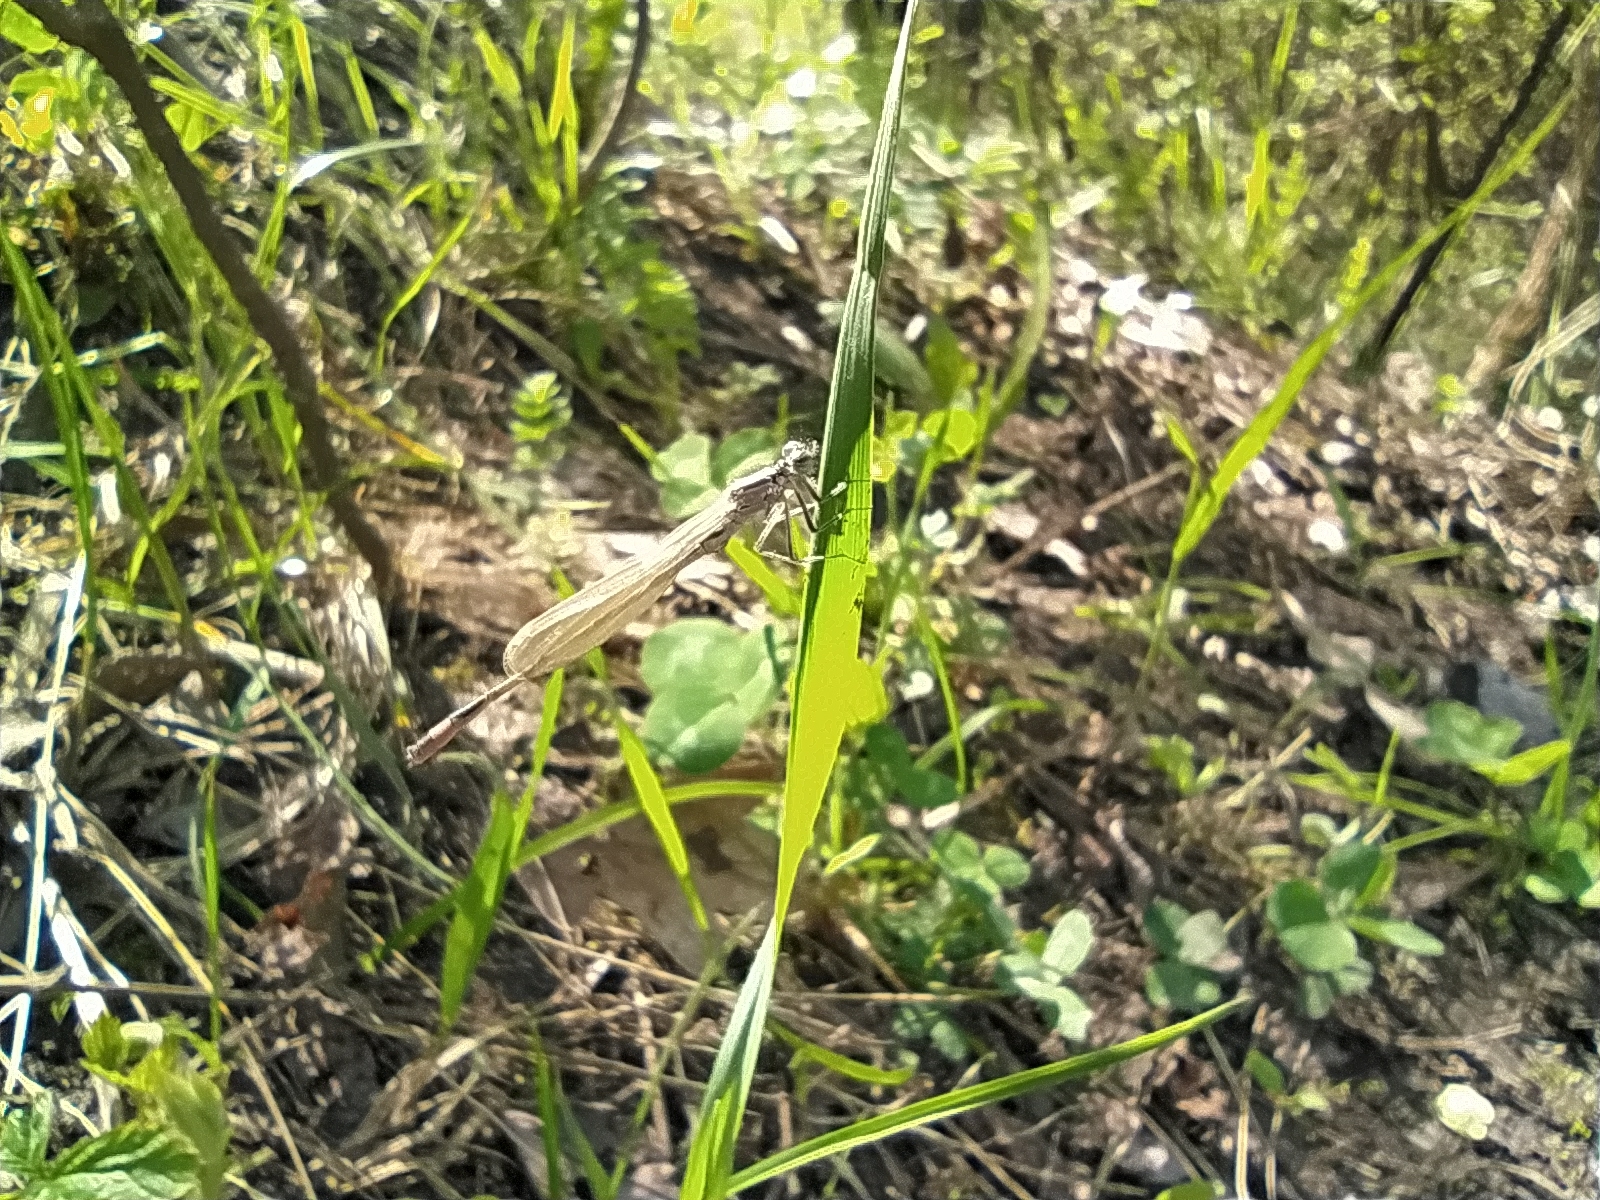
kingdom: Animalia
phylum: Arthropoda
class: Insecta
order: Odonata
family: Coenagrionidae
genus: Ischnura
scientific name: Ischnura elegans
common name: Blue-tailed damselfly
